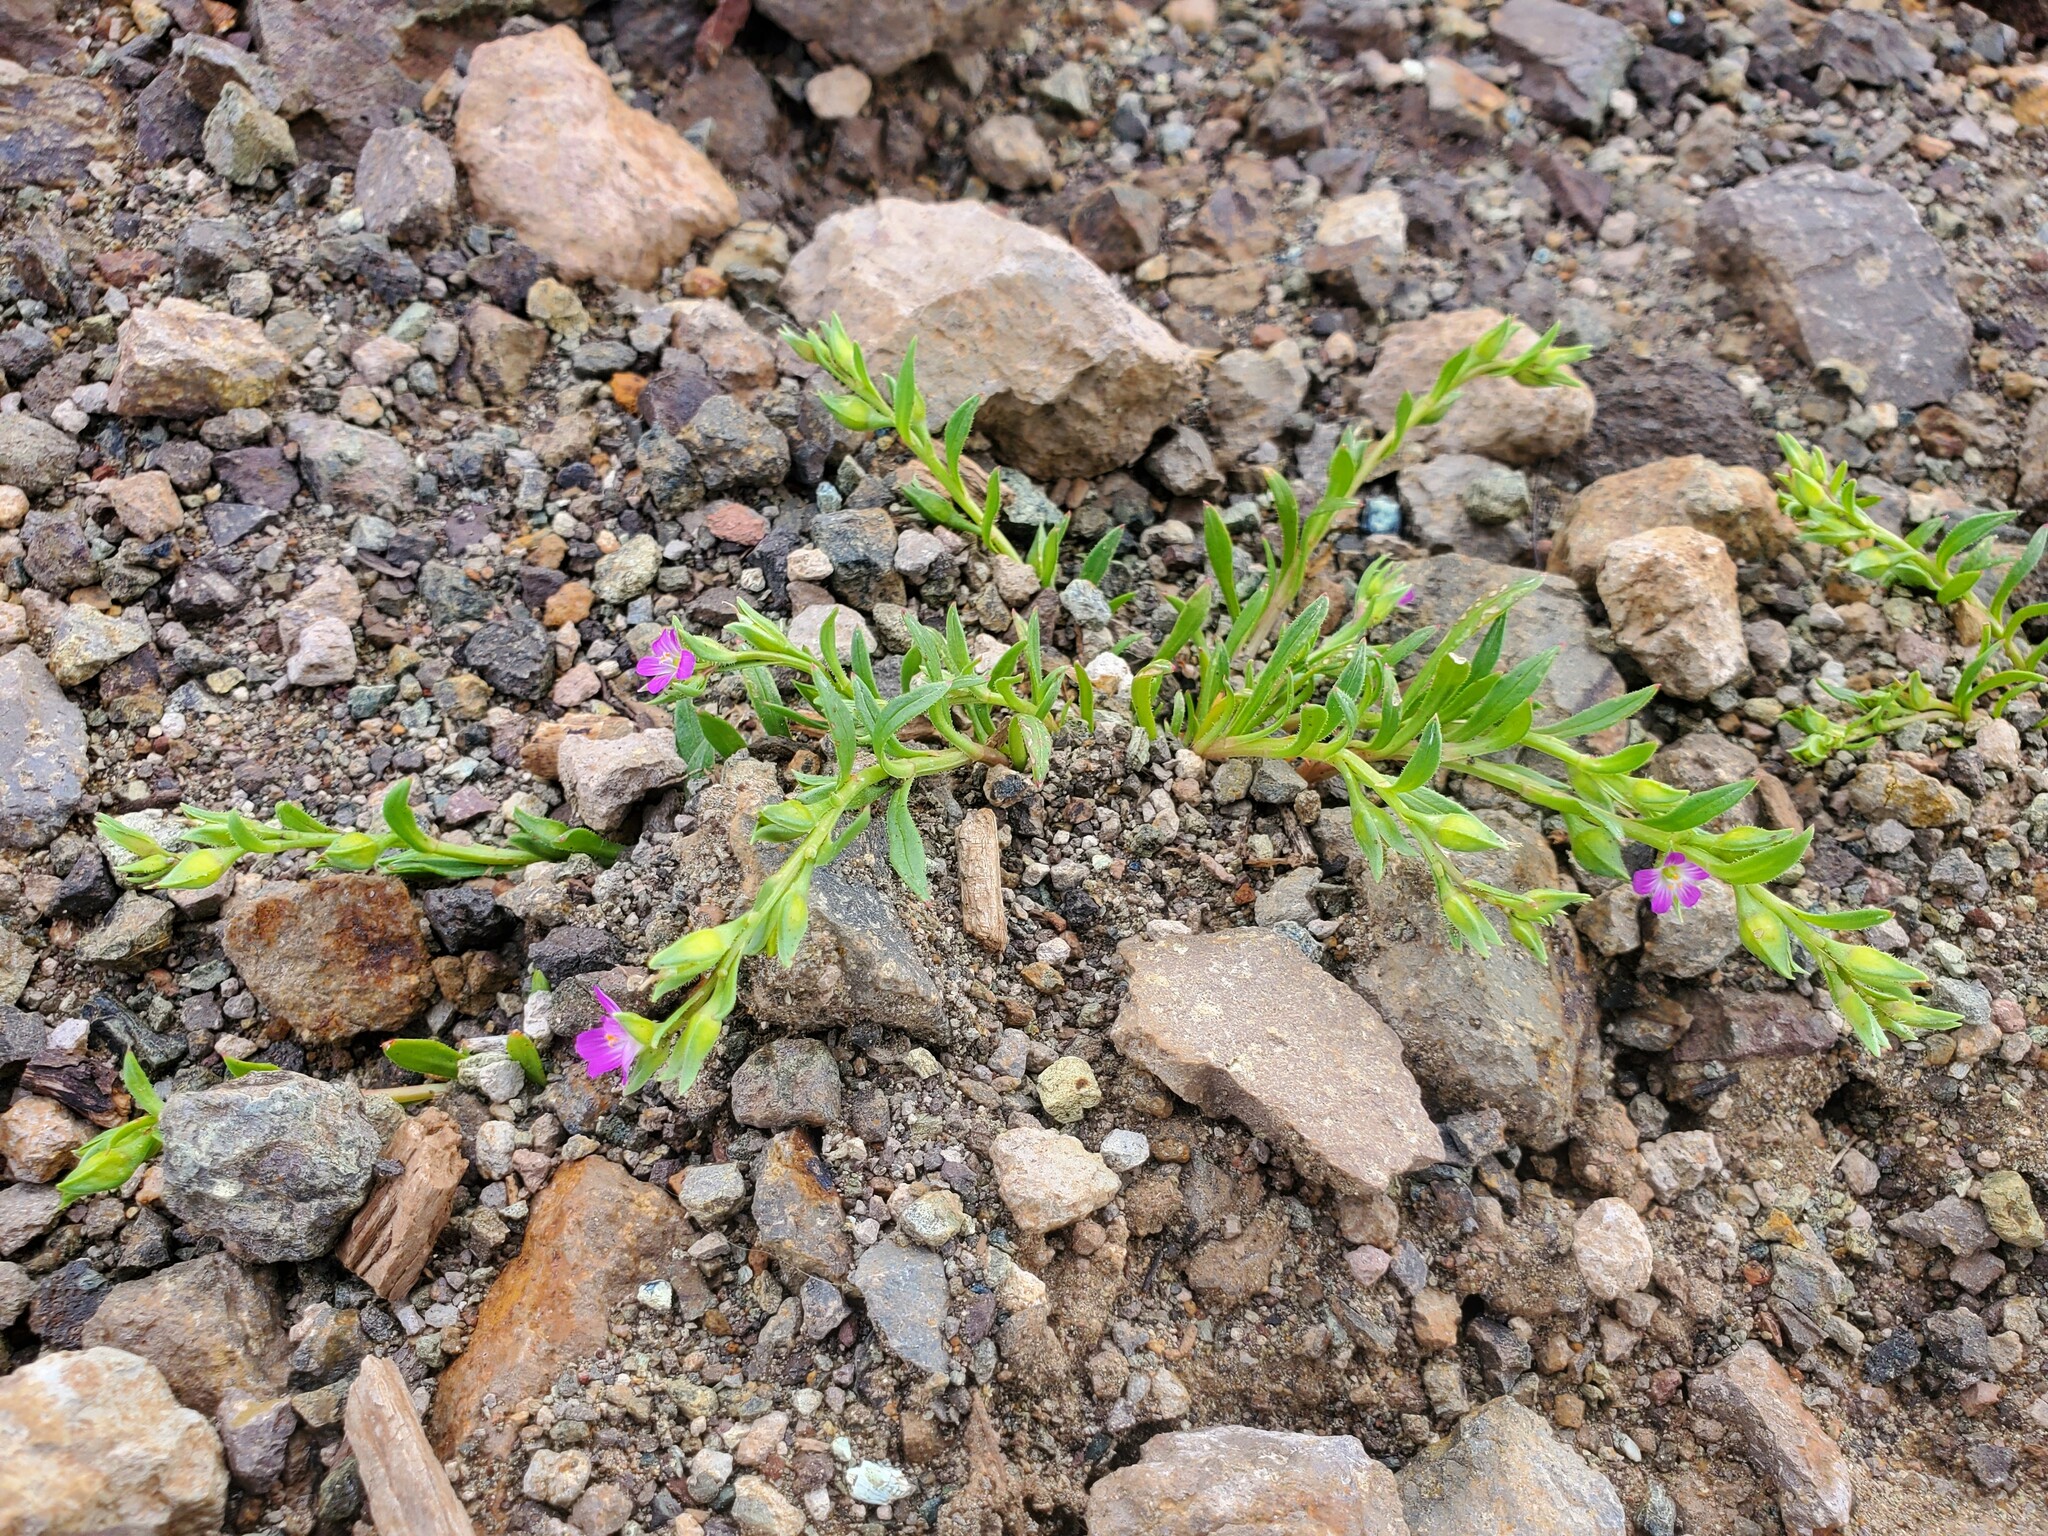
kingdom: Plantae
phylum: Tracheophyta
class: Magnoliopsida
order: Caryophyllales
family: Montiaceae
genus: Calandrinia
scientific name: Calandrinia menziesii
